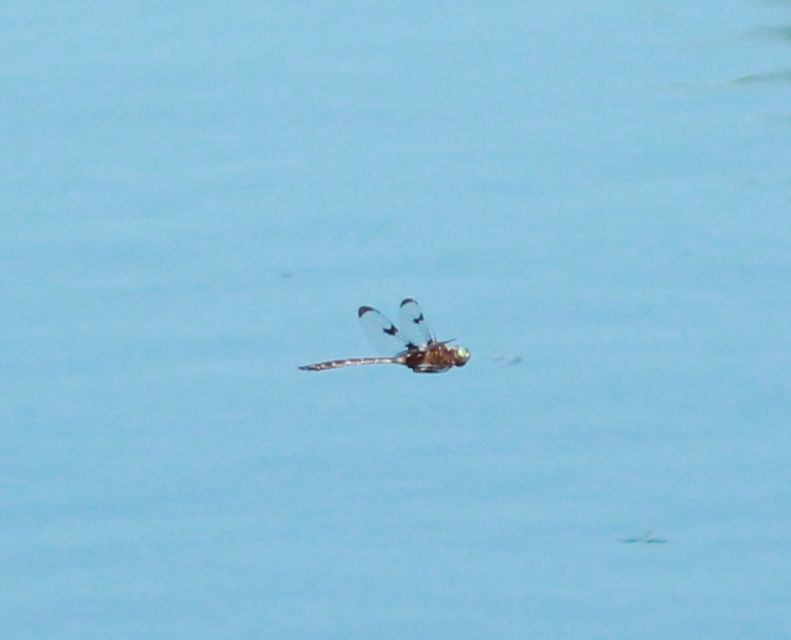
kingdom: Animalia
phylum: Arthropoda
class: Insecta
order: Odonata
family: Corduliidae
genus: Epitheca
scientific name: Epitheca princeps
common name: Prince baskettail
